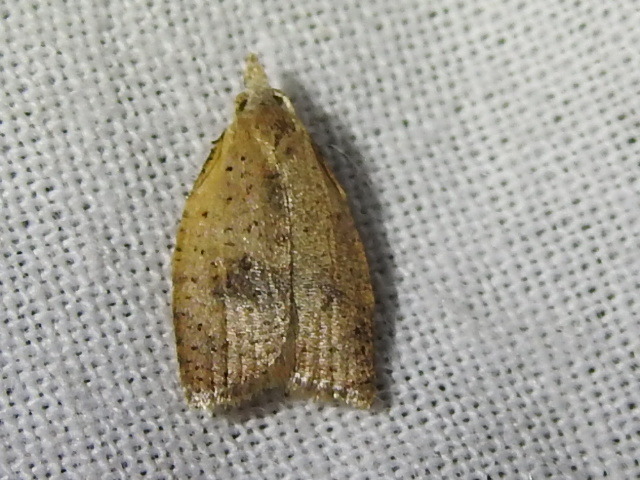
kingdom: Animalia
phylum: Arthropoda
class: Insecta
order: Lepidoptera
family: Tortricidae
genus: Sparganothoides
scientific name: Sparganothoides lentiginosana
